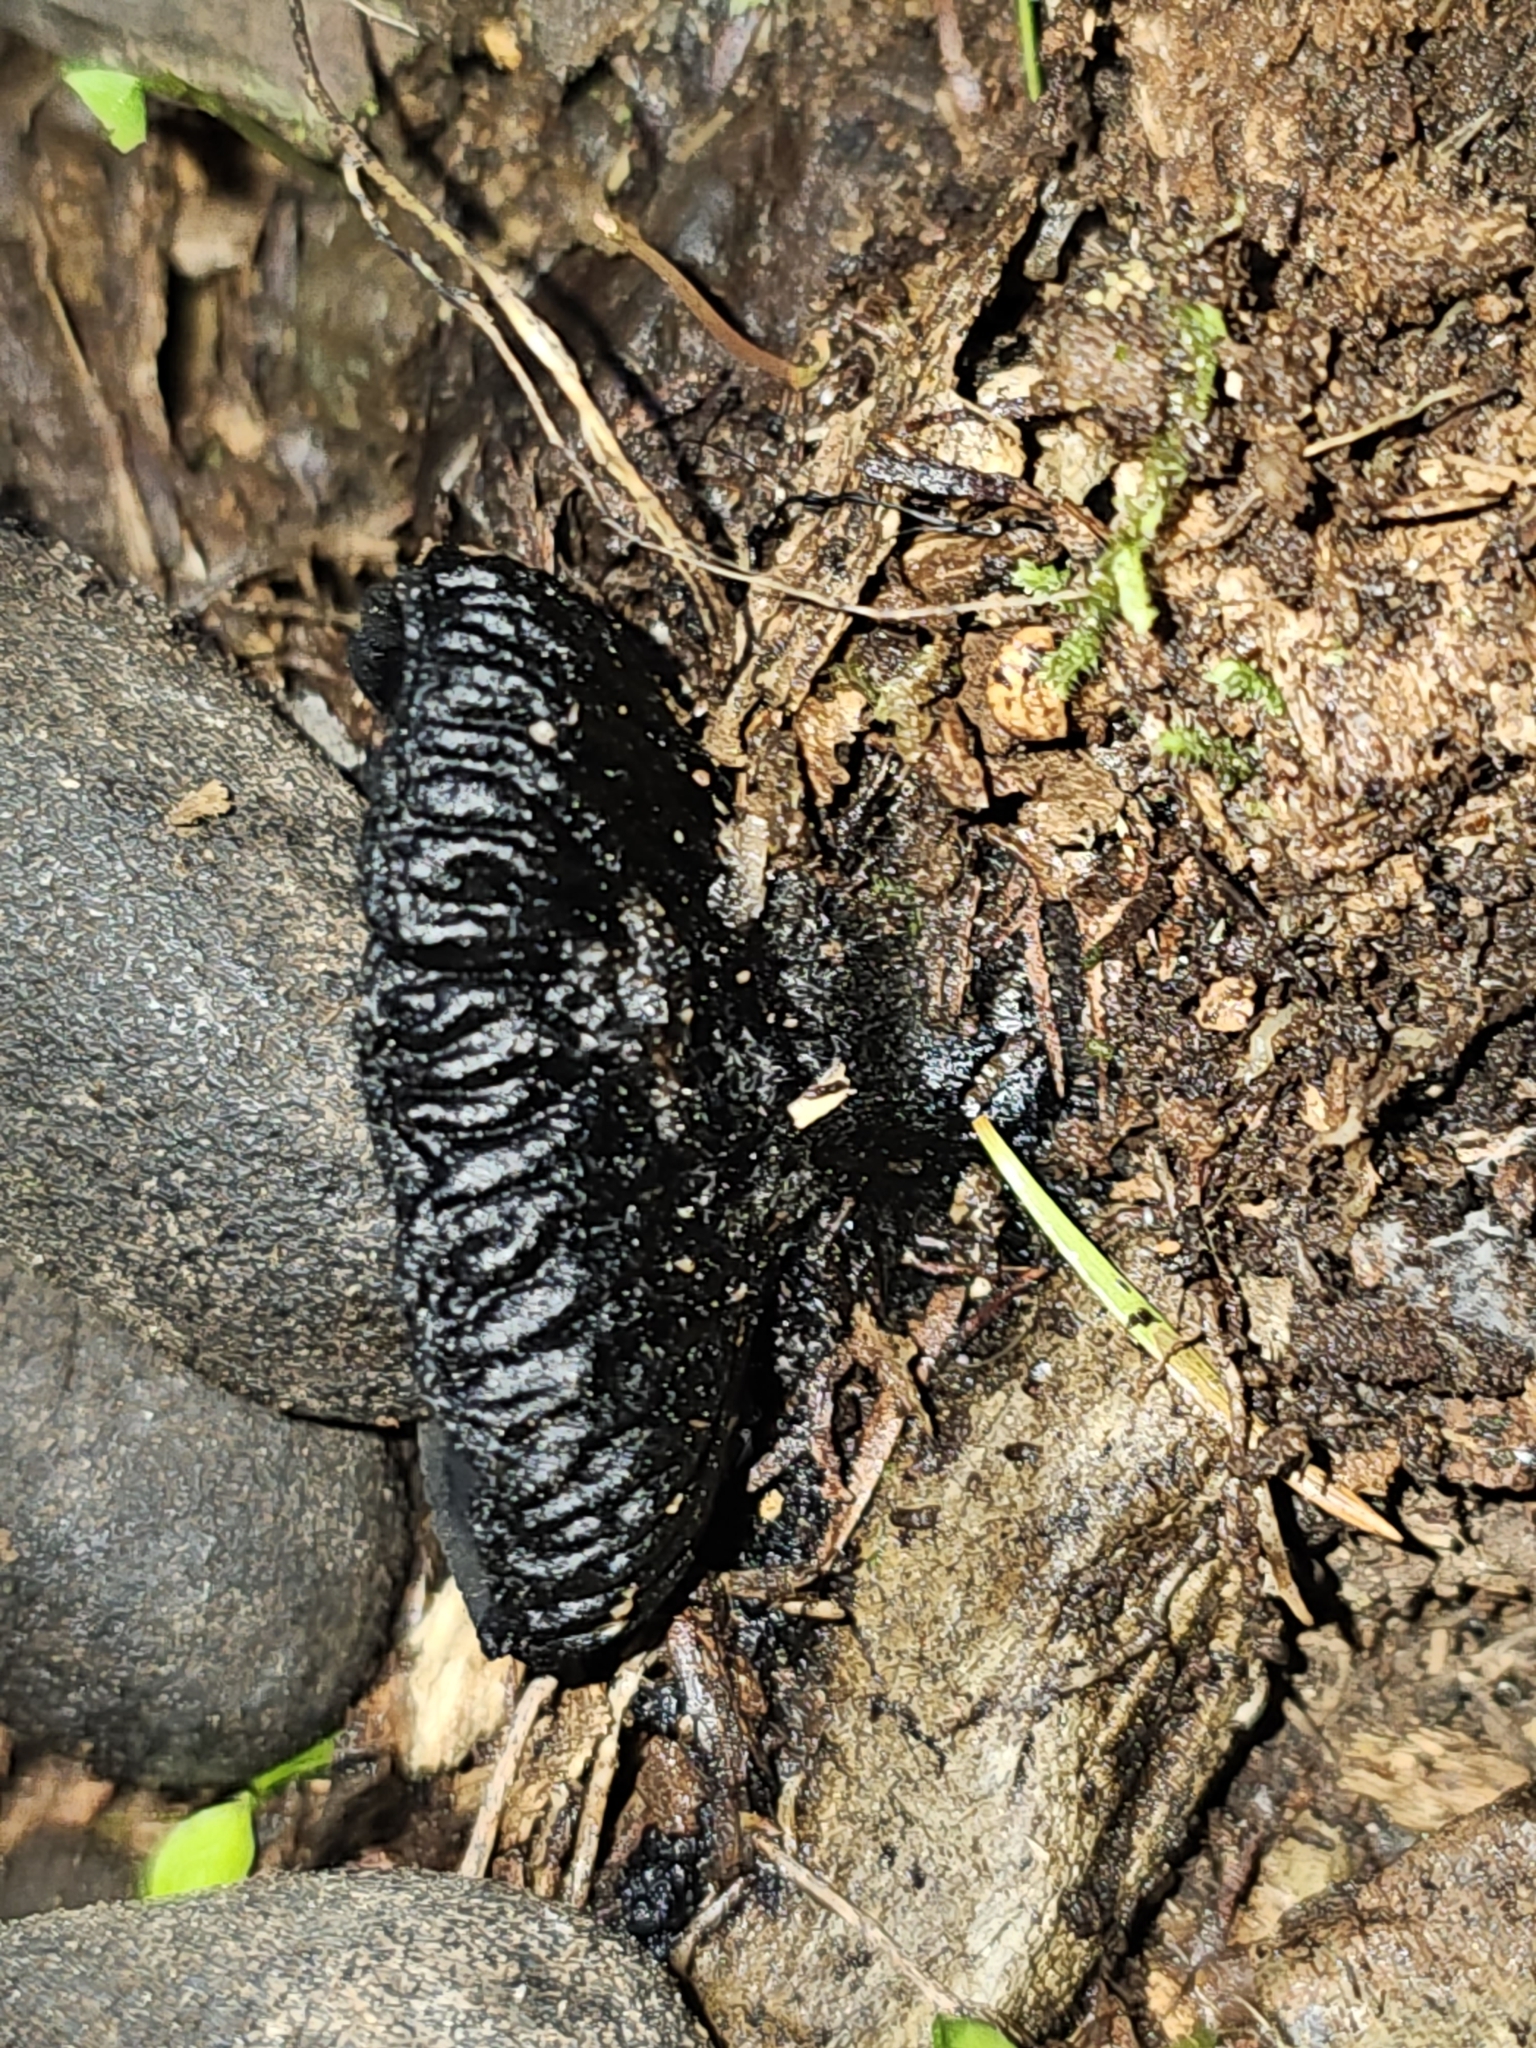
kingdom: Fungi
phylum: Ascomycota
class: Pezizomycetes
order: Pezizales
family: Sarcosomataceae
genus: Plectania
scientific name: Plectania rhytidia
